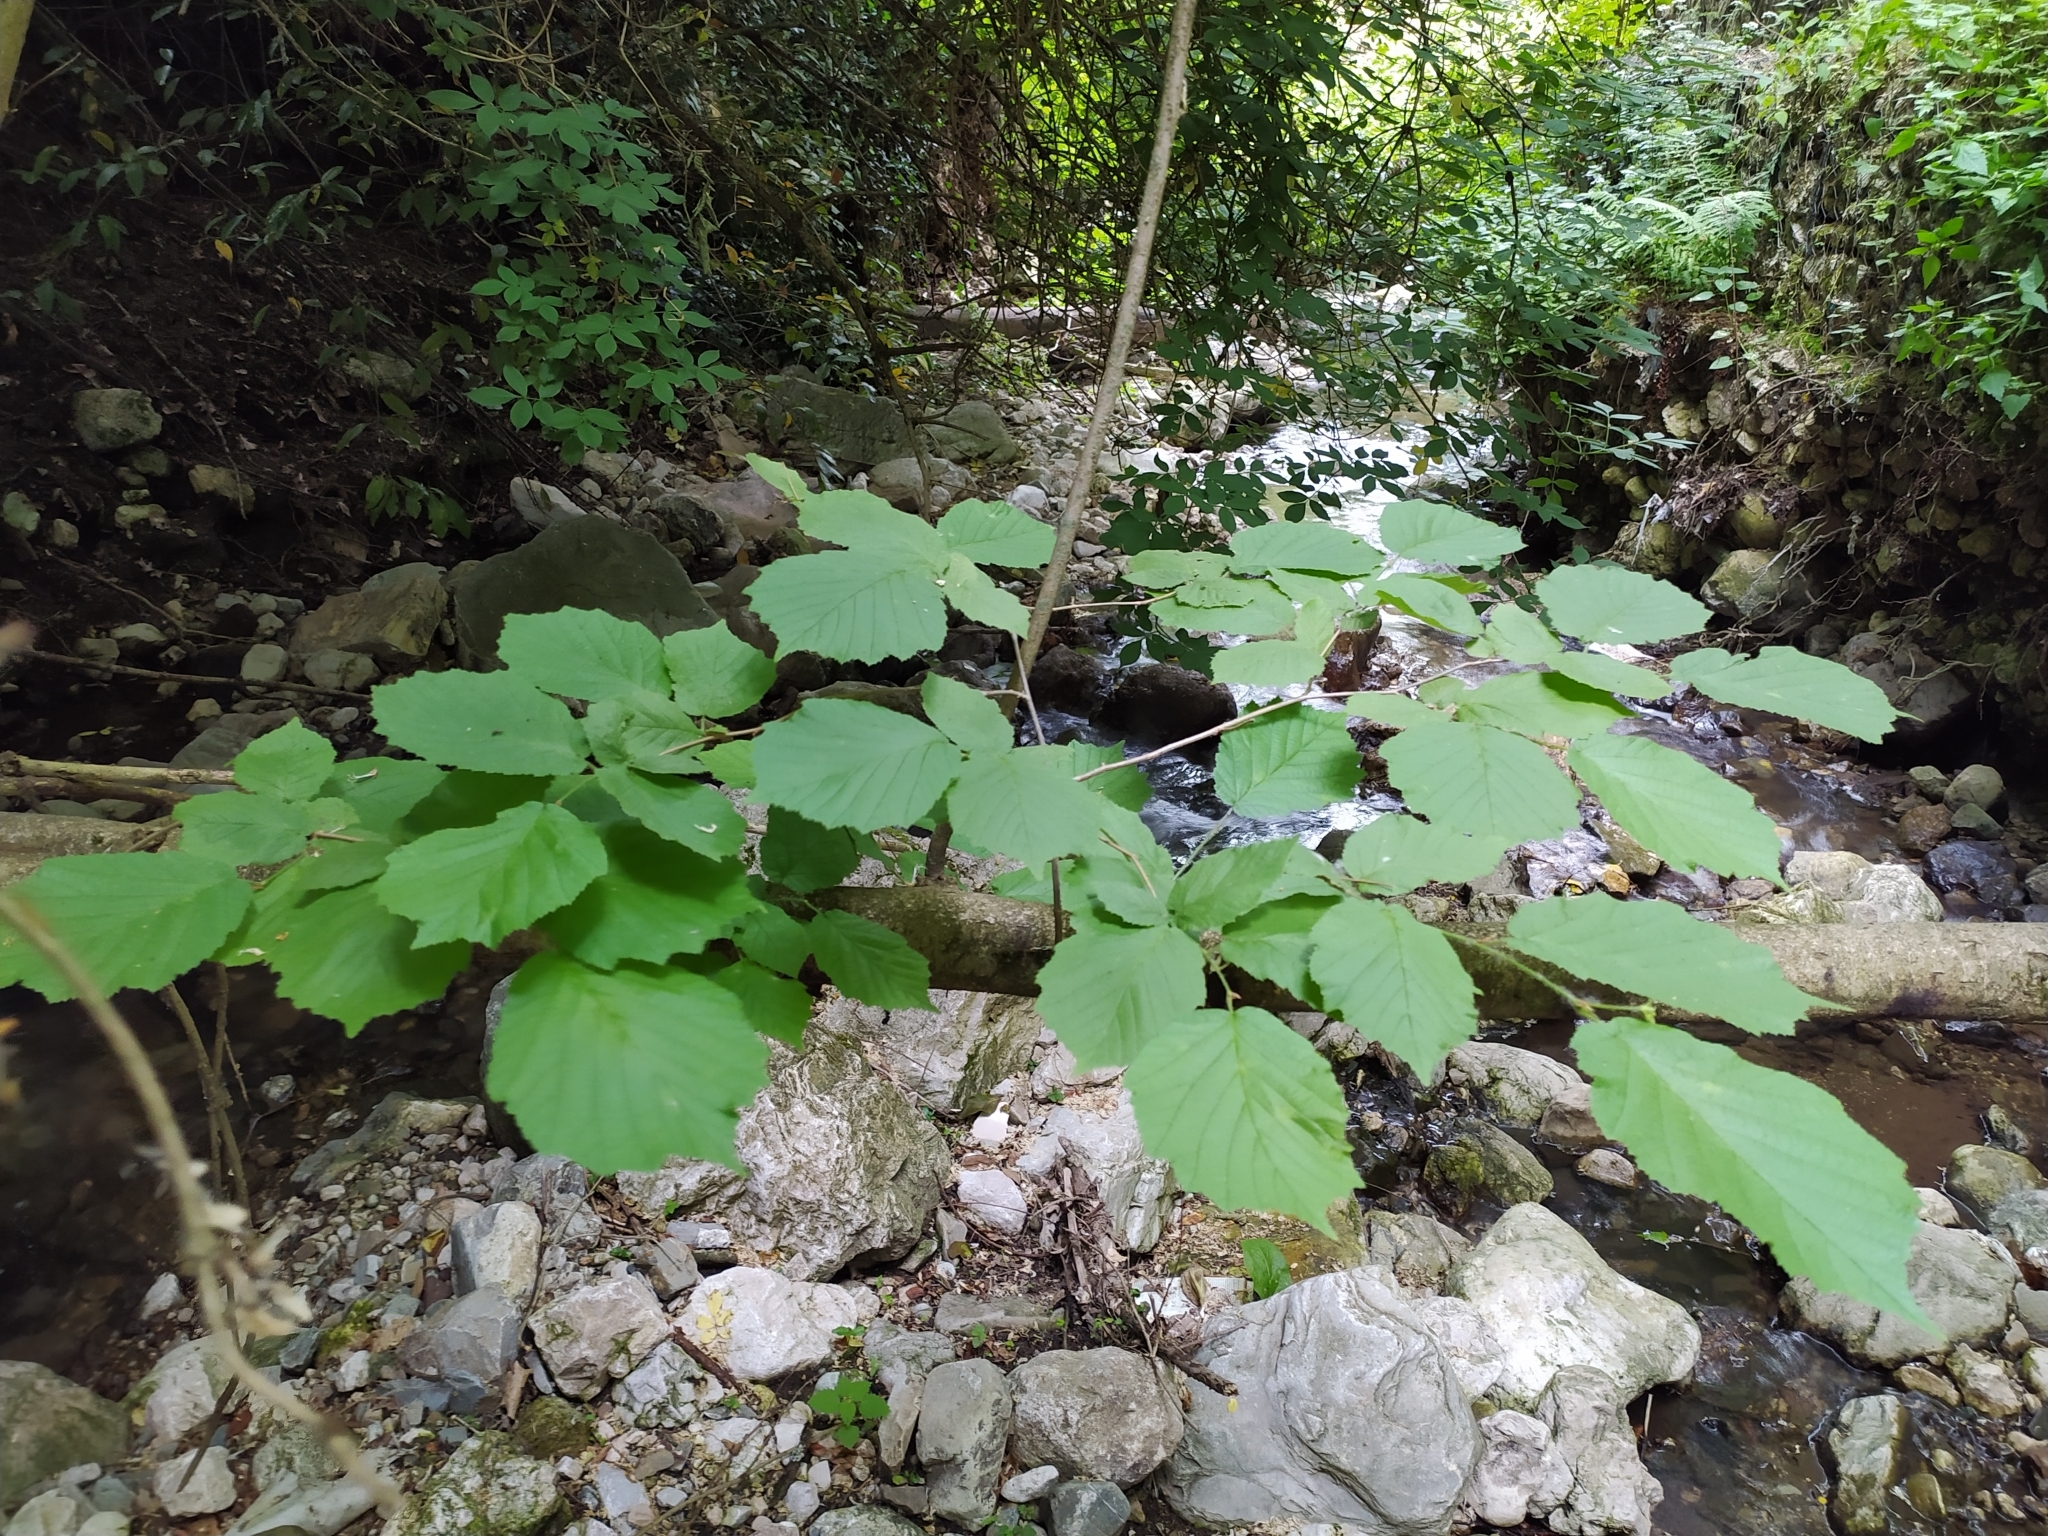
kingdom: Plantae
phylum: Tracheophyta
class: Magnoliopsida
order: Fagales
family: Betulaceae
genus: Corylus
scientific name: Corylus avellana
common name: European hazel
